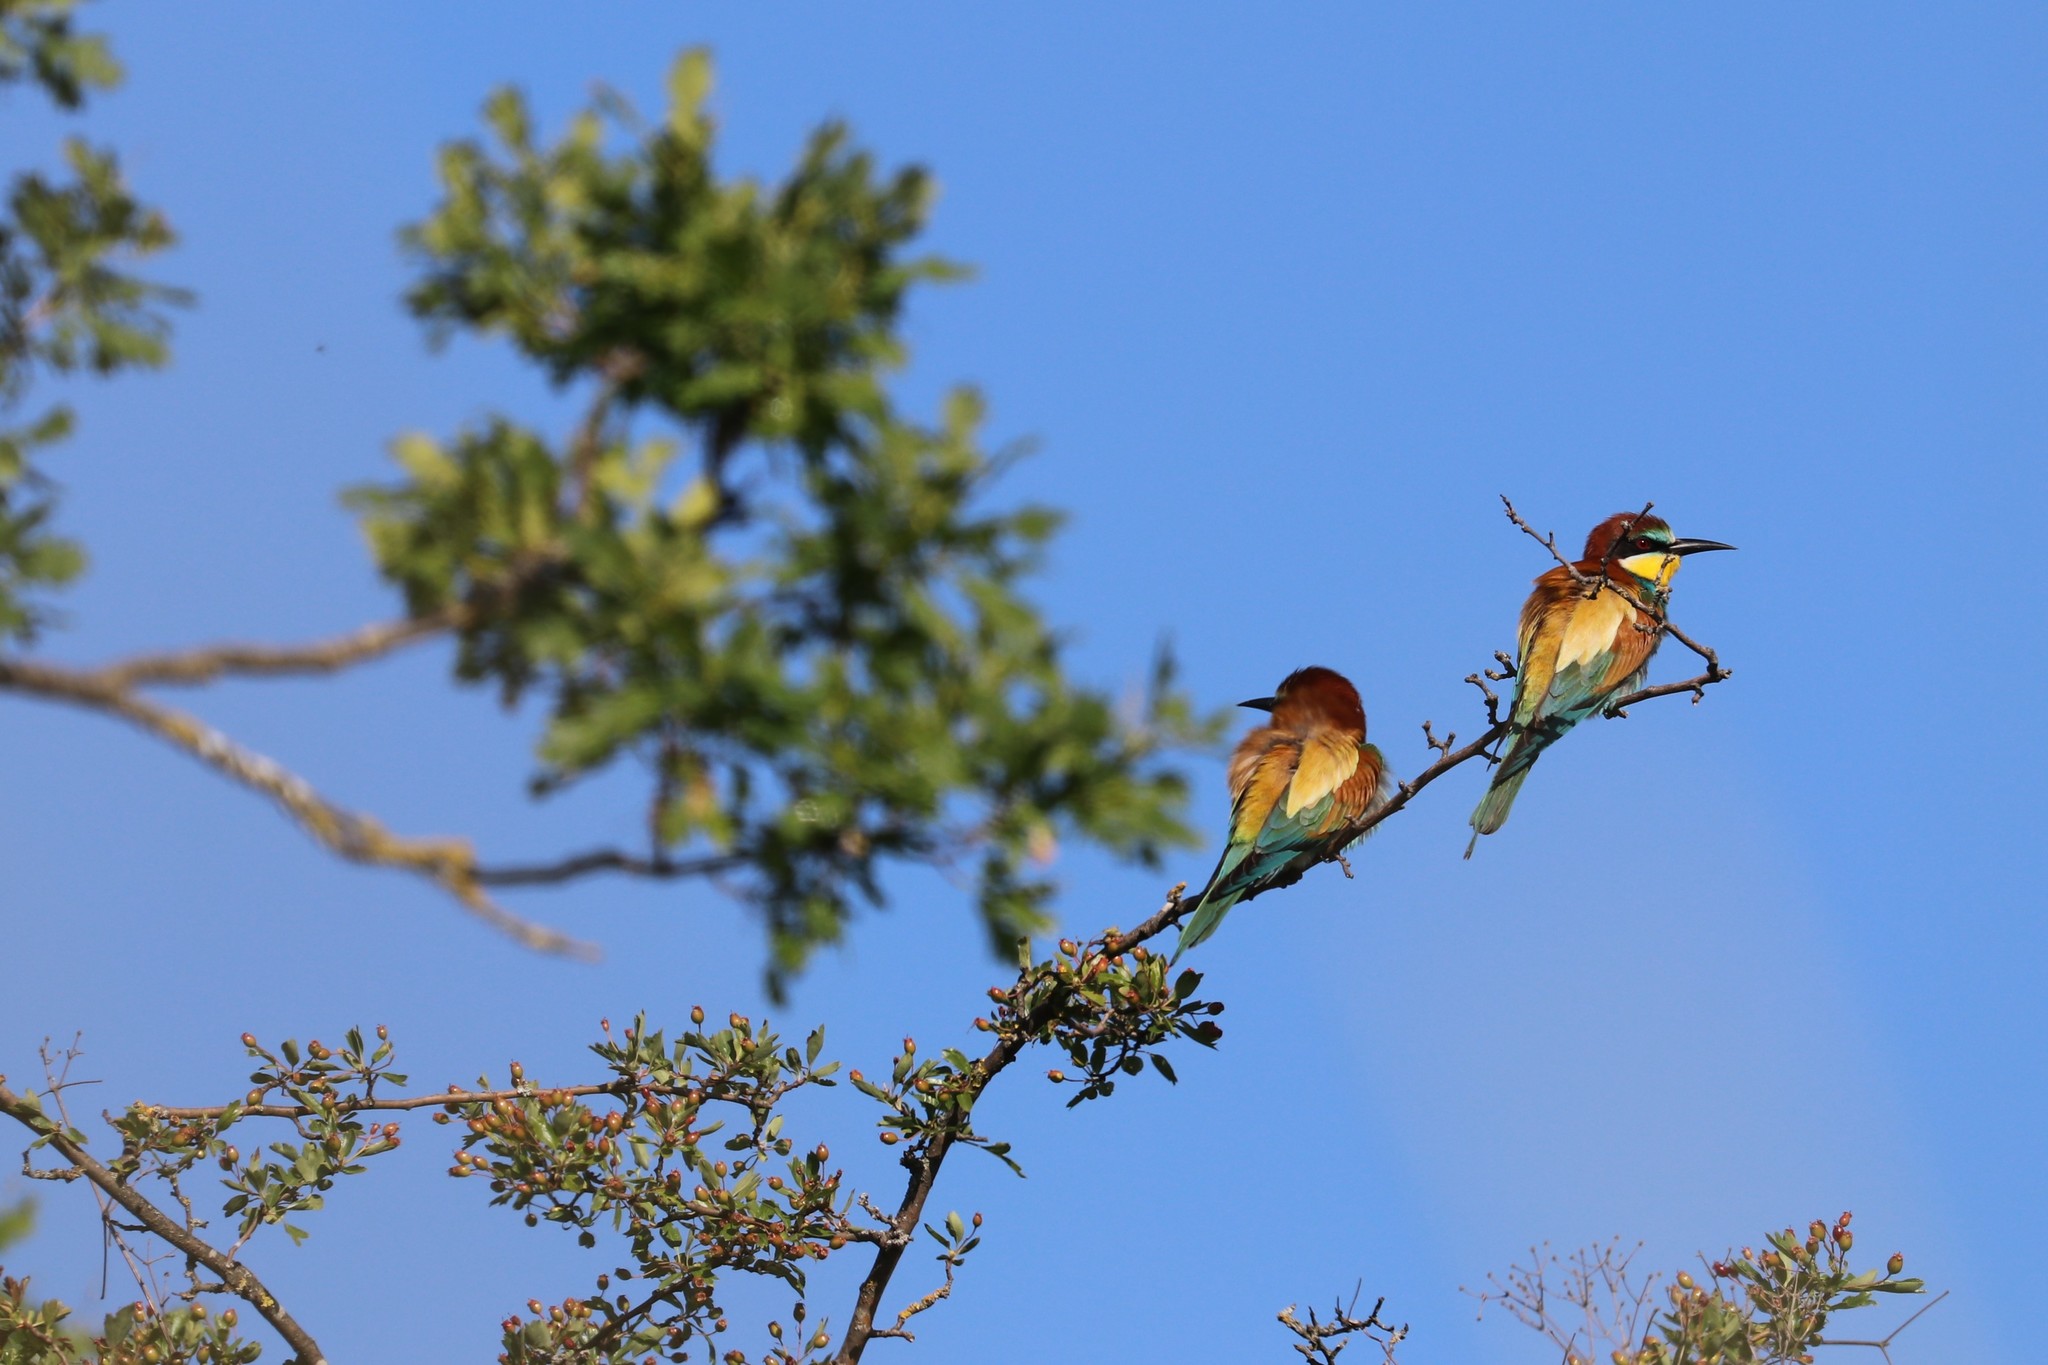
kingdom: Animalia
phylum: Chordata
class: Aves
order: Coraciiformes
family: Meropidae
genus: Merops
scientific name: Merops apiaster
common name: European bee-eater
